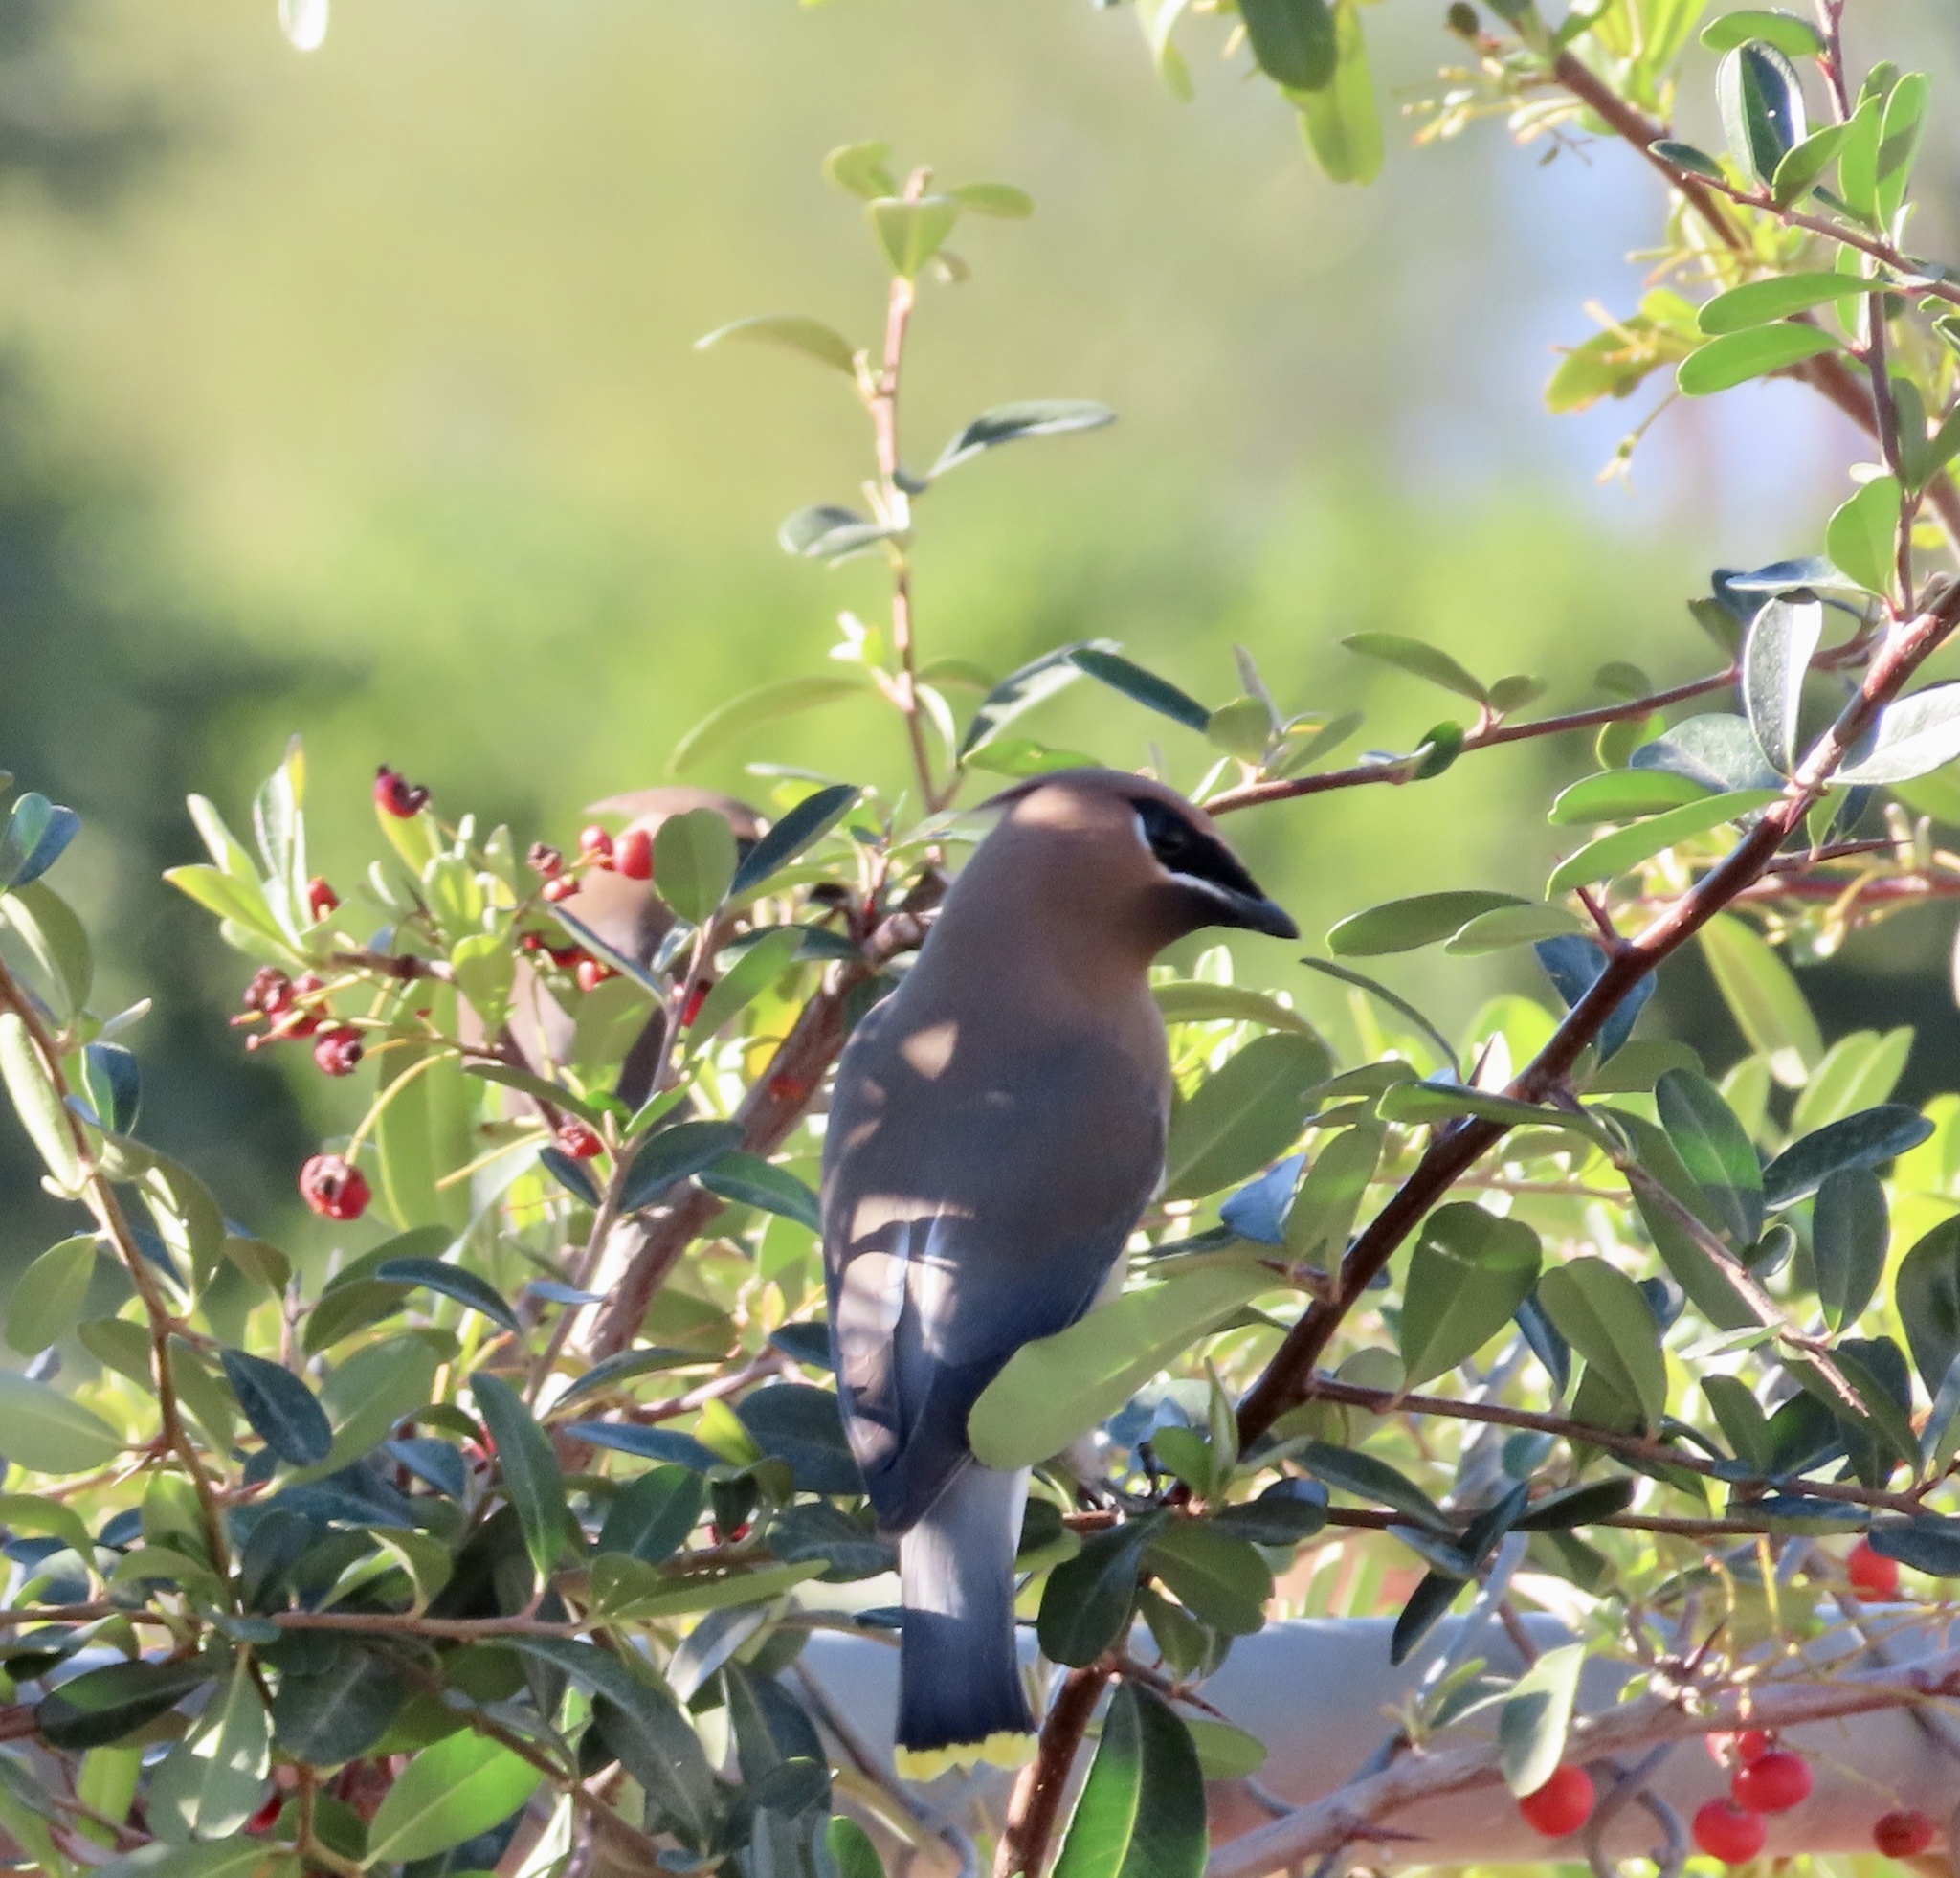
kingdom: Animalia
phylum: Chordata
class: Aves
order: Passeriformes
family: Bombycillidae
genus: Bombycilla
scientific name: Bombycilla cedrorum
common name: Cedar waxwing
